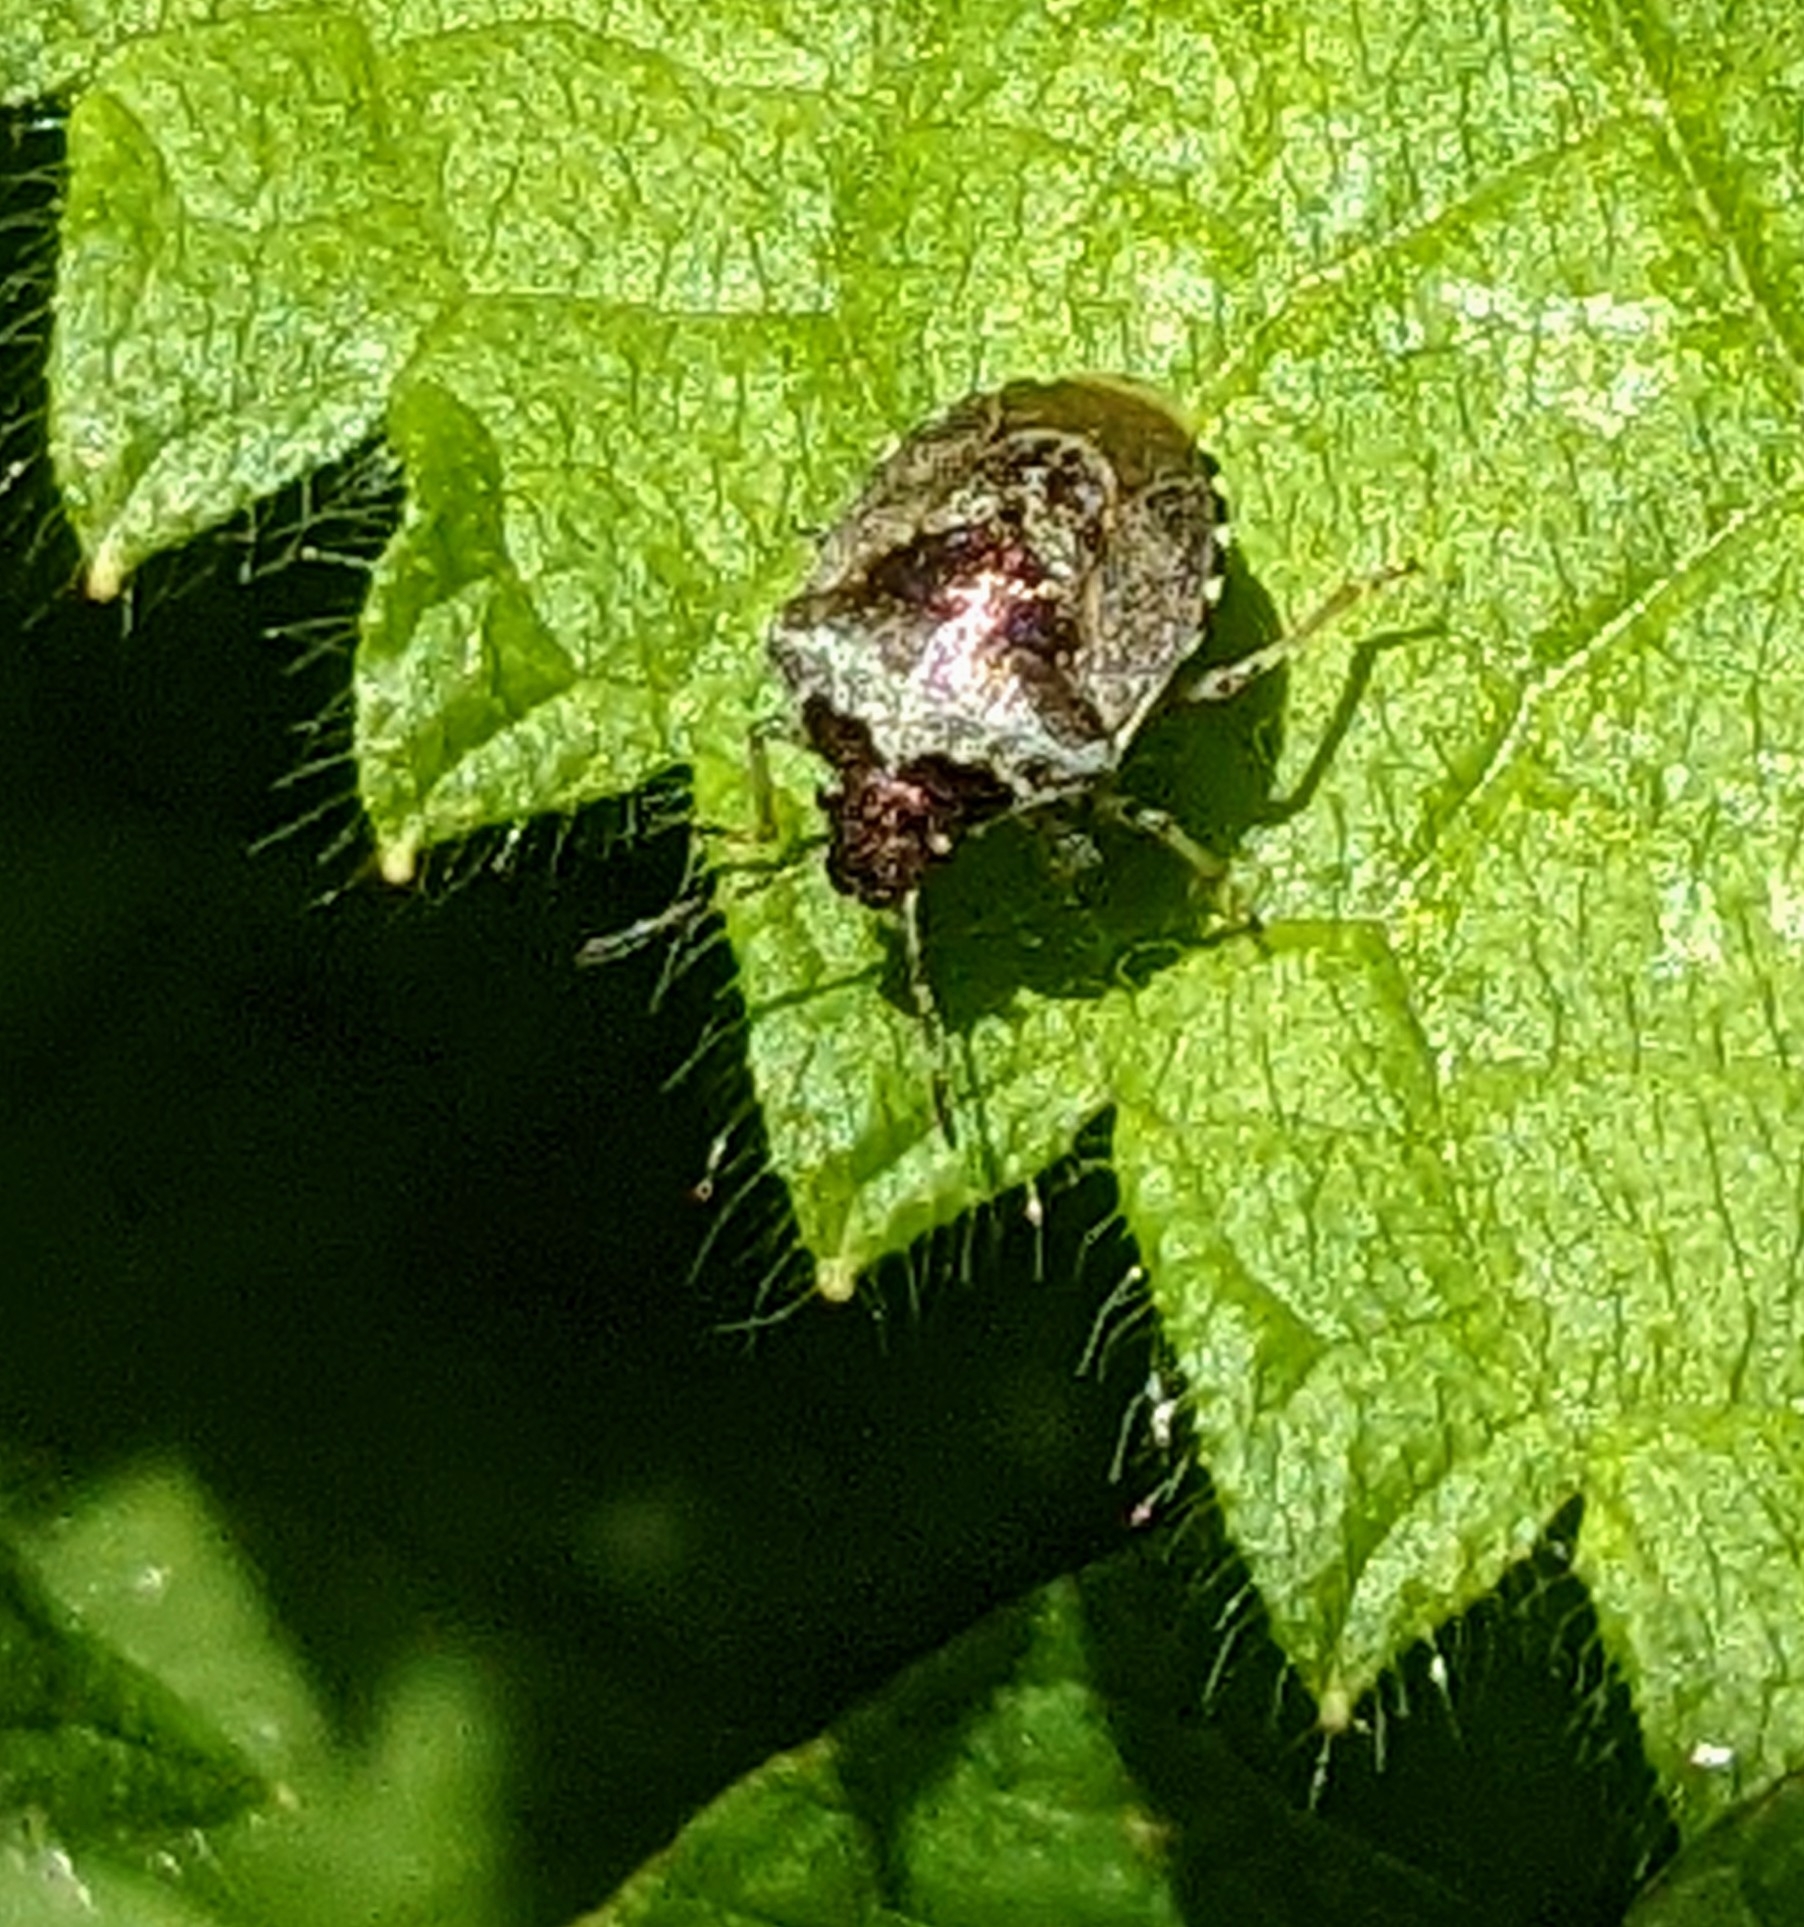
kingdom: Animalia
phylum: Arthropoda
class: Insecta
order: Hemiptera
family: Pentatomidae
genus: Eysarcoris
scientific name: Eysarcoris venustissimus
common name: Woundwort shieldbug
